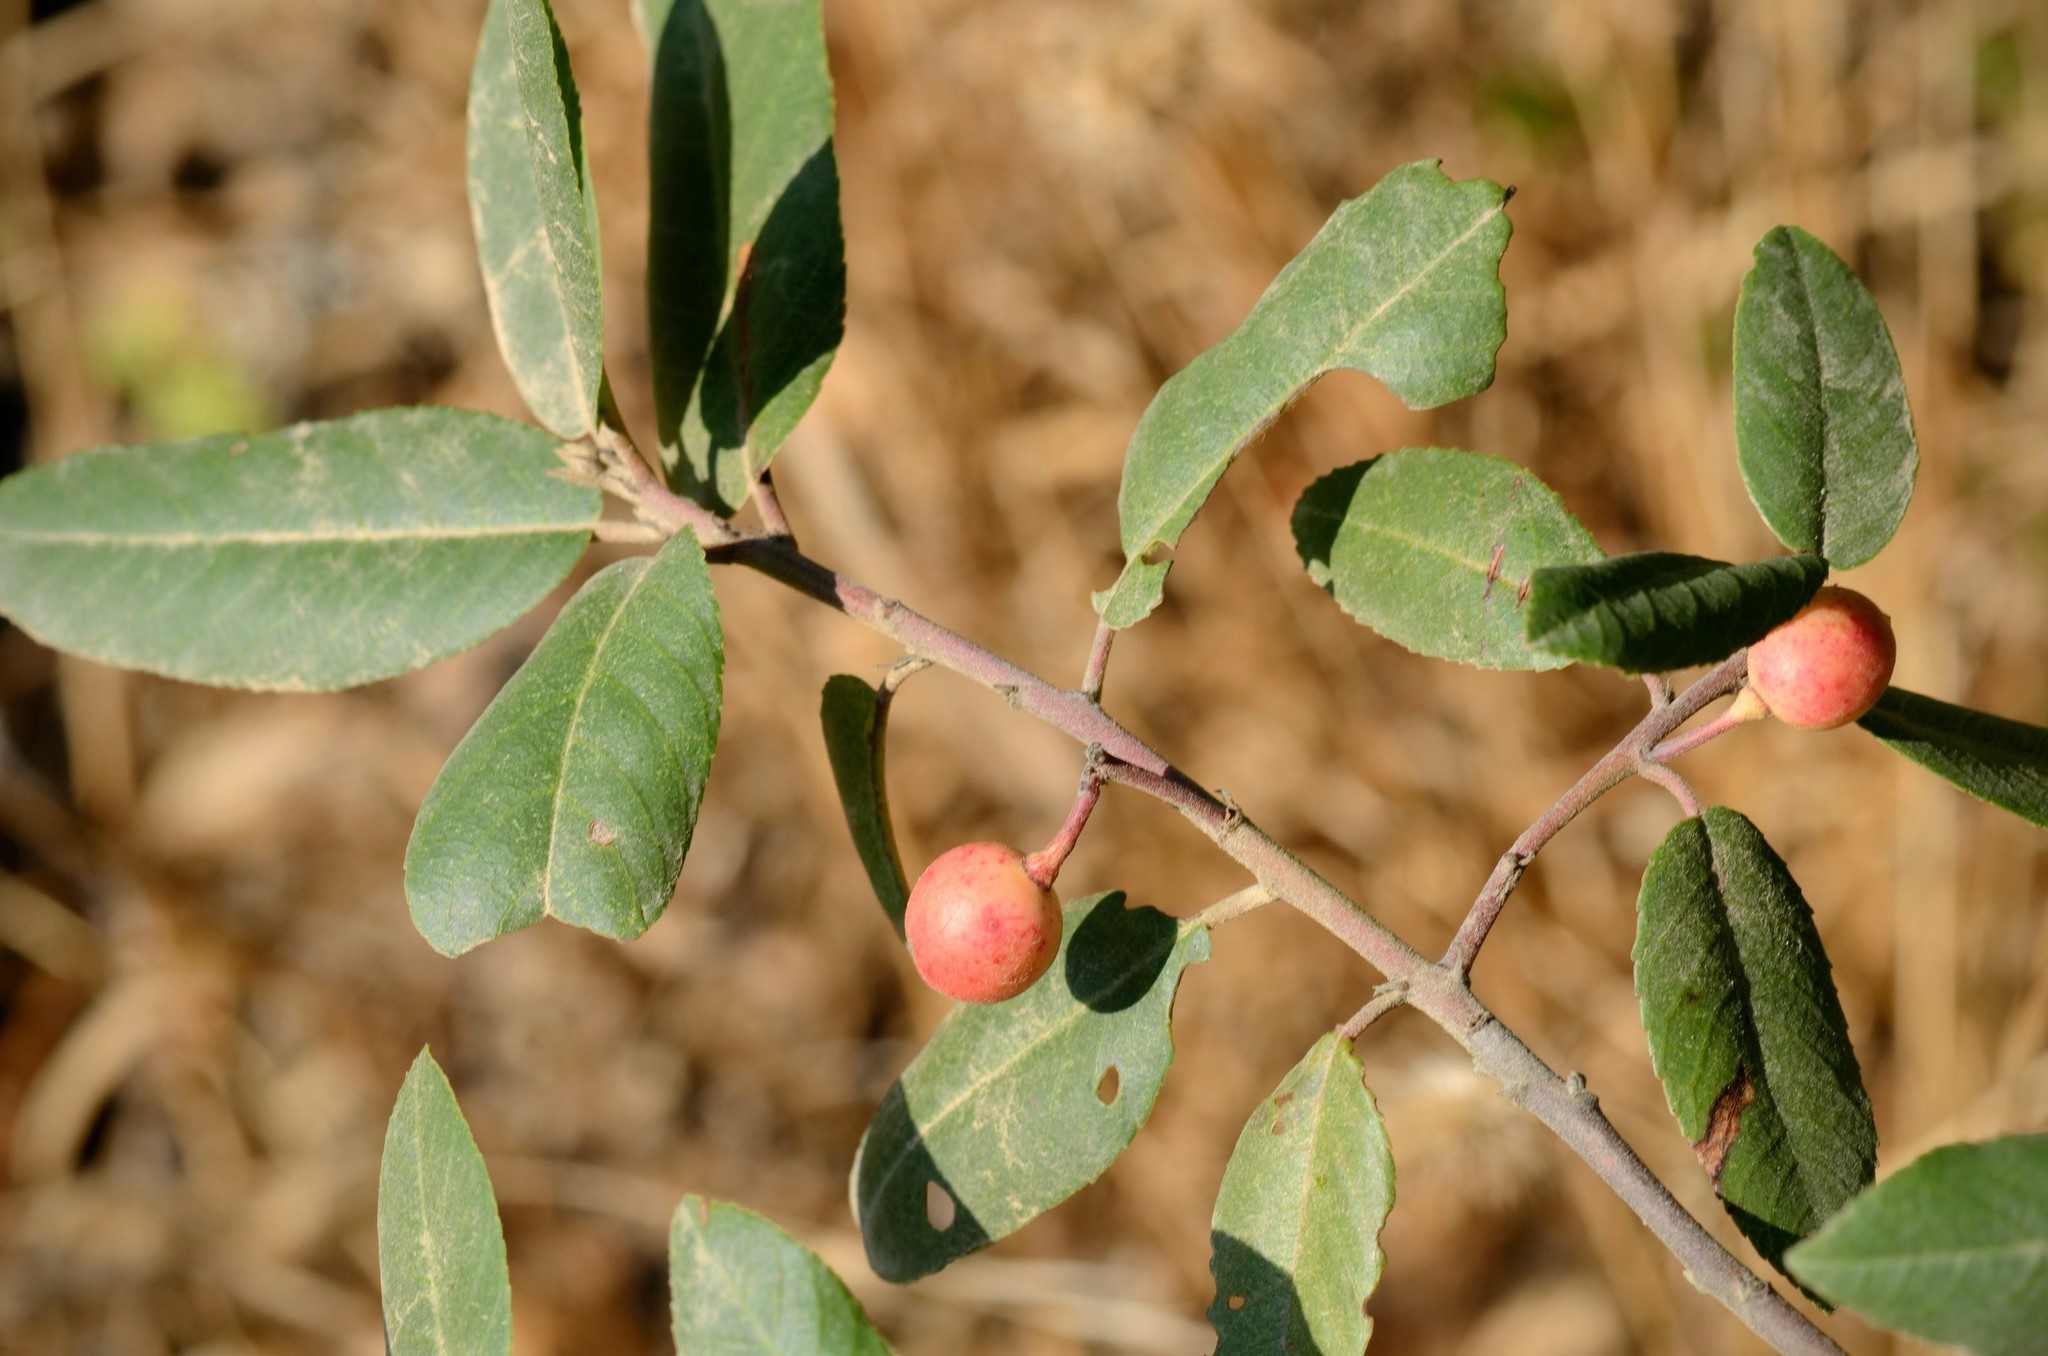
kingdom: Plantae
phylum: Tracheophyta
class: Magnoliopsida
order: Rosales
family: Rhamnaceae
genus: Frangula
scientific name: Frangula californica
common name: California buckthorn
